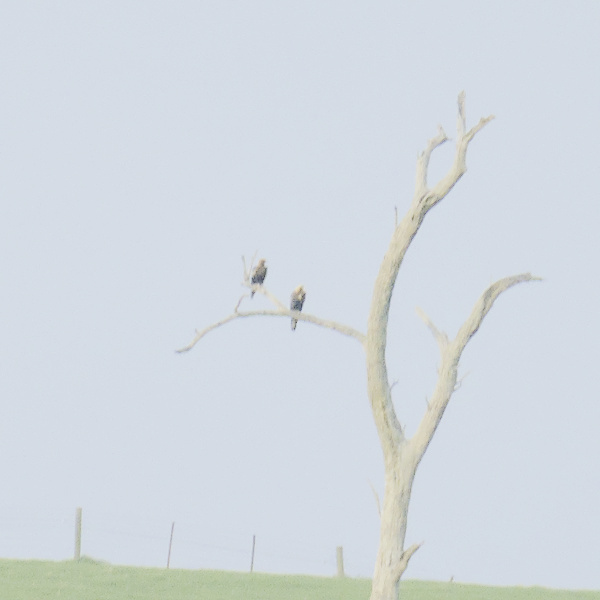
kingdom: Animalia
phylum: Chordata
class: Aves
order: Accipitriformes
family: Accipitridae
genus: Aquila
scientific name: Aquila audax
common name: Wedge-tailed eagle
